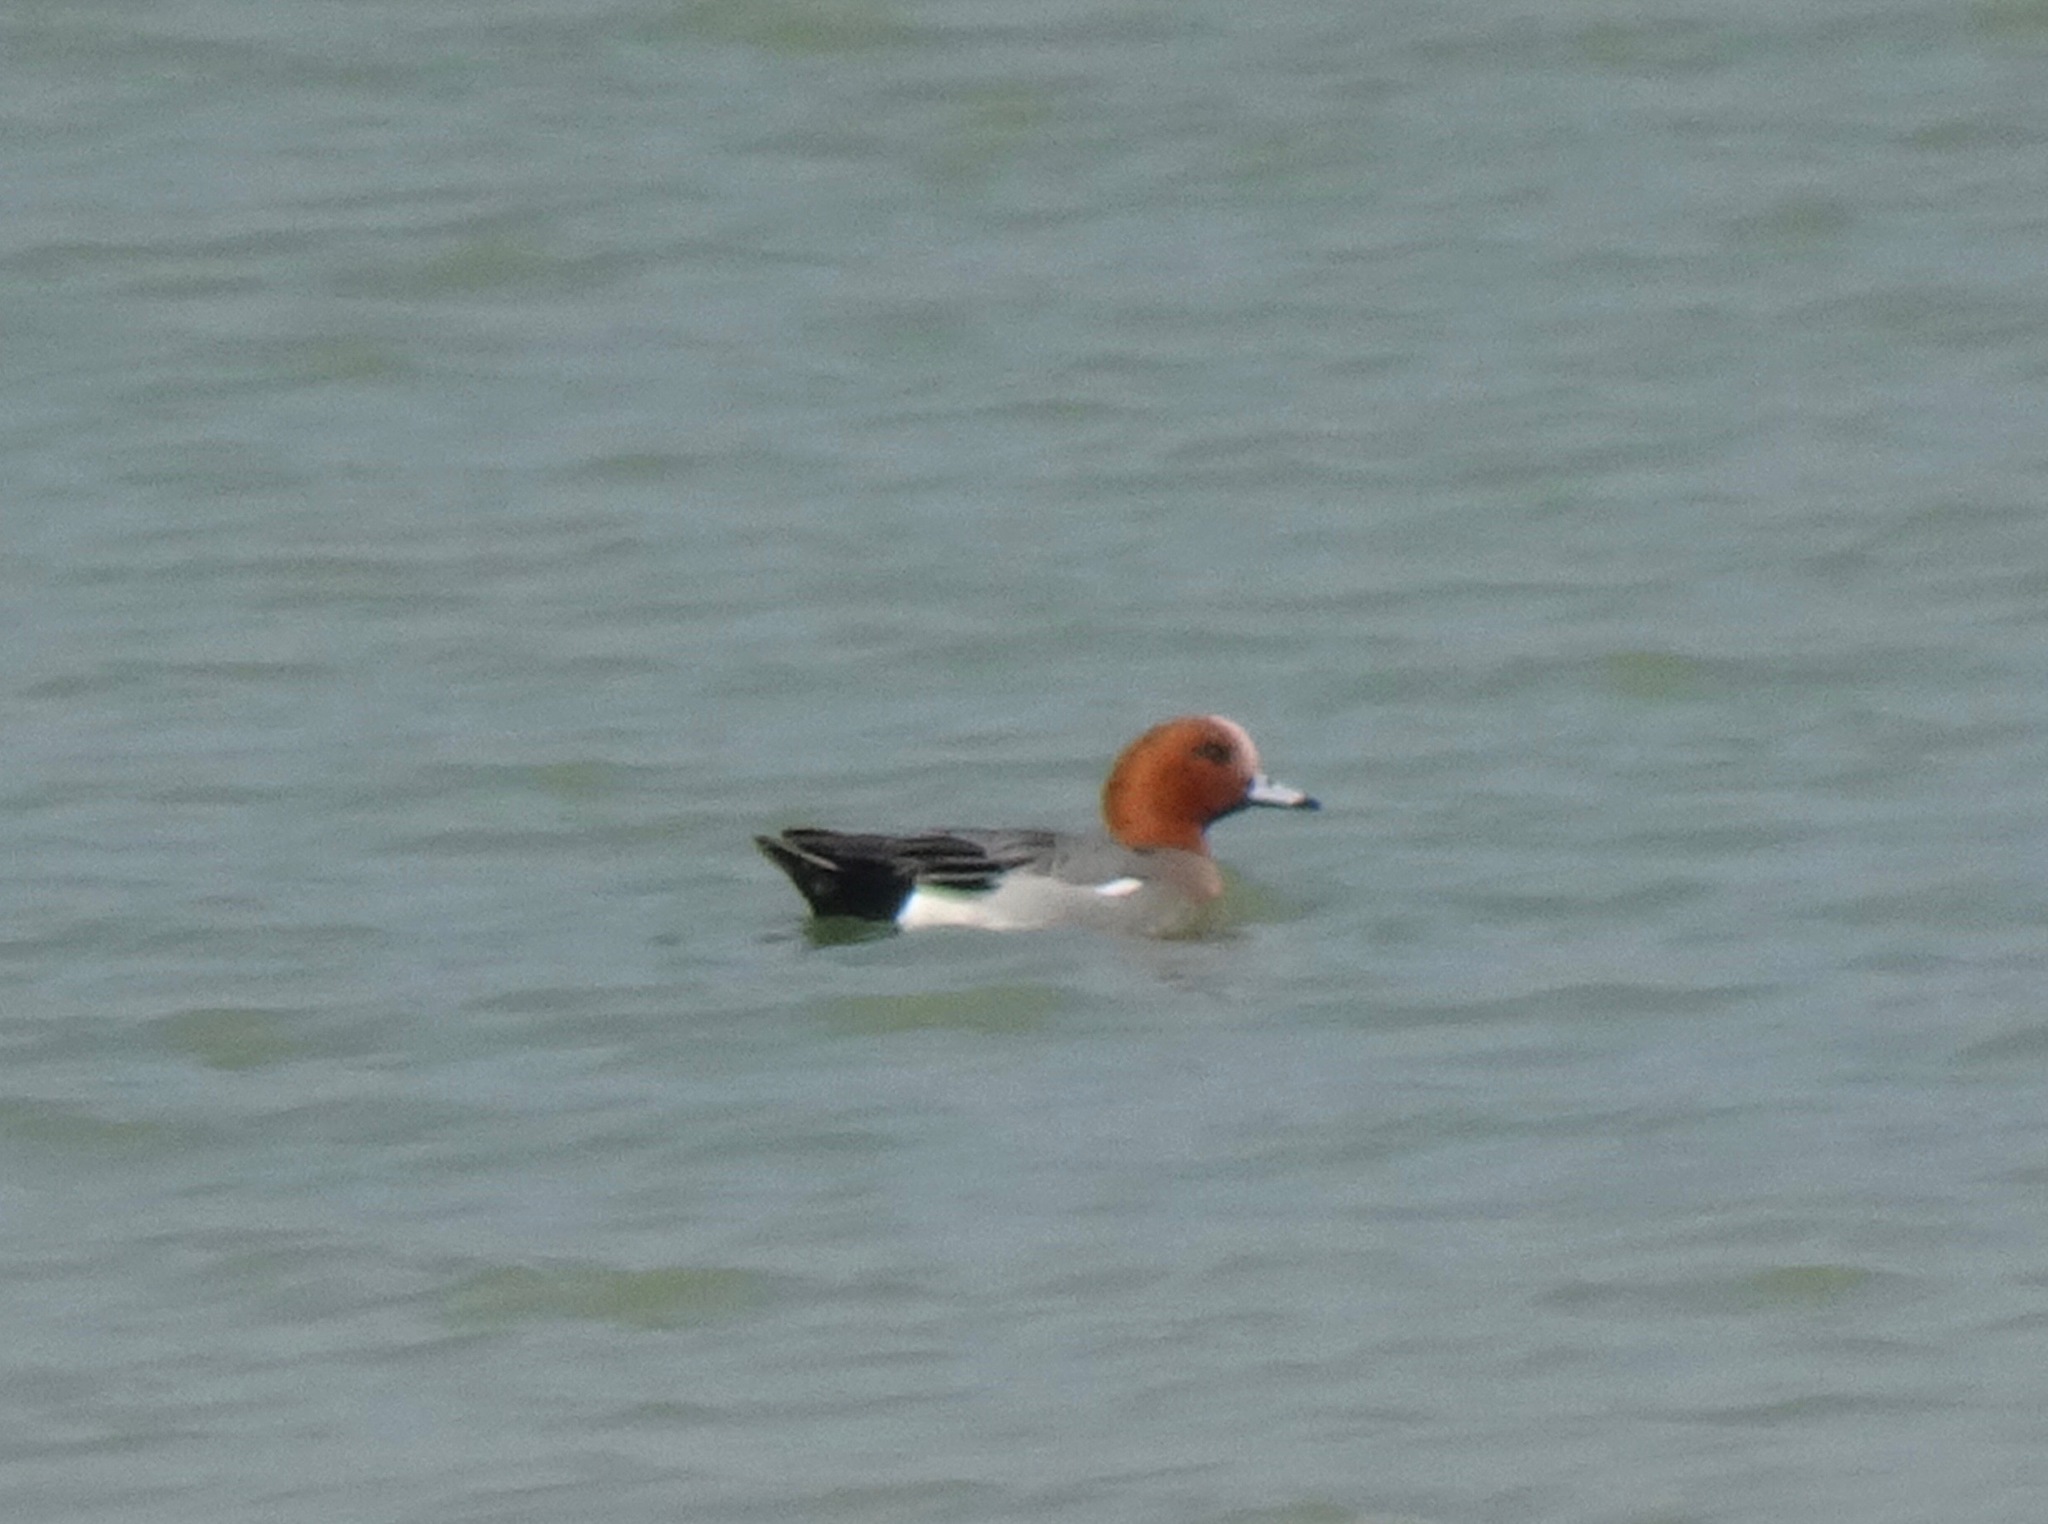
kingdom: Animalia
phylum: Chordata
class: Aves
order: Anseriformes
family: Anatidae
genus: Mareca
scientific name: Mareca penelope
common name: Eurasian wigeon
